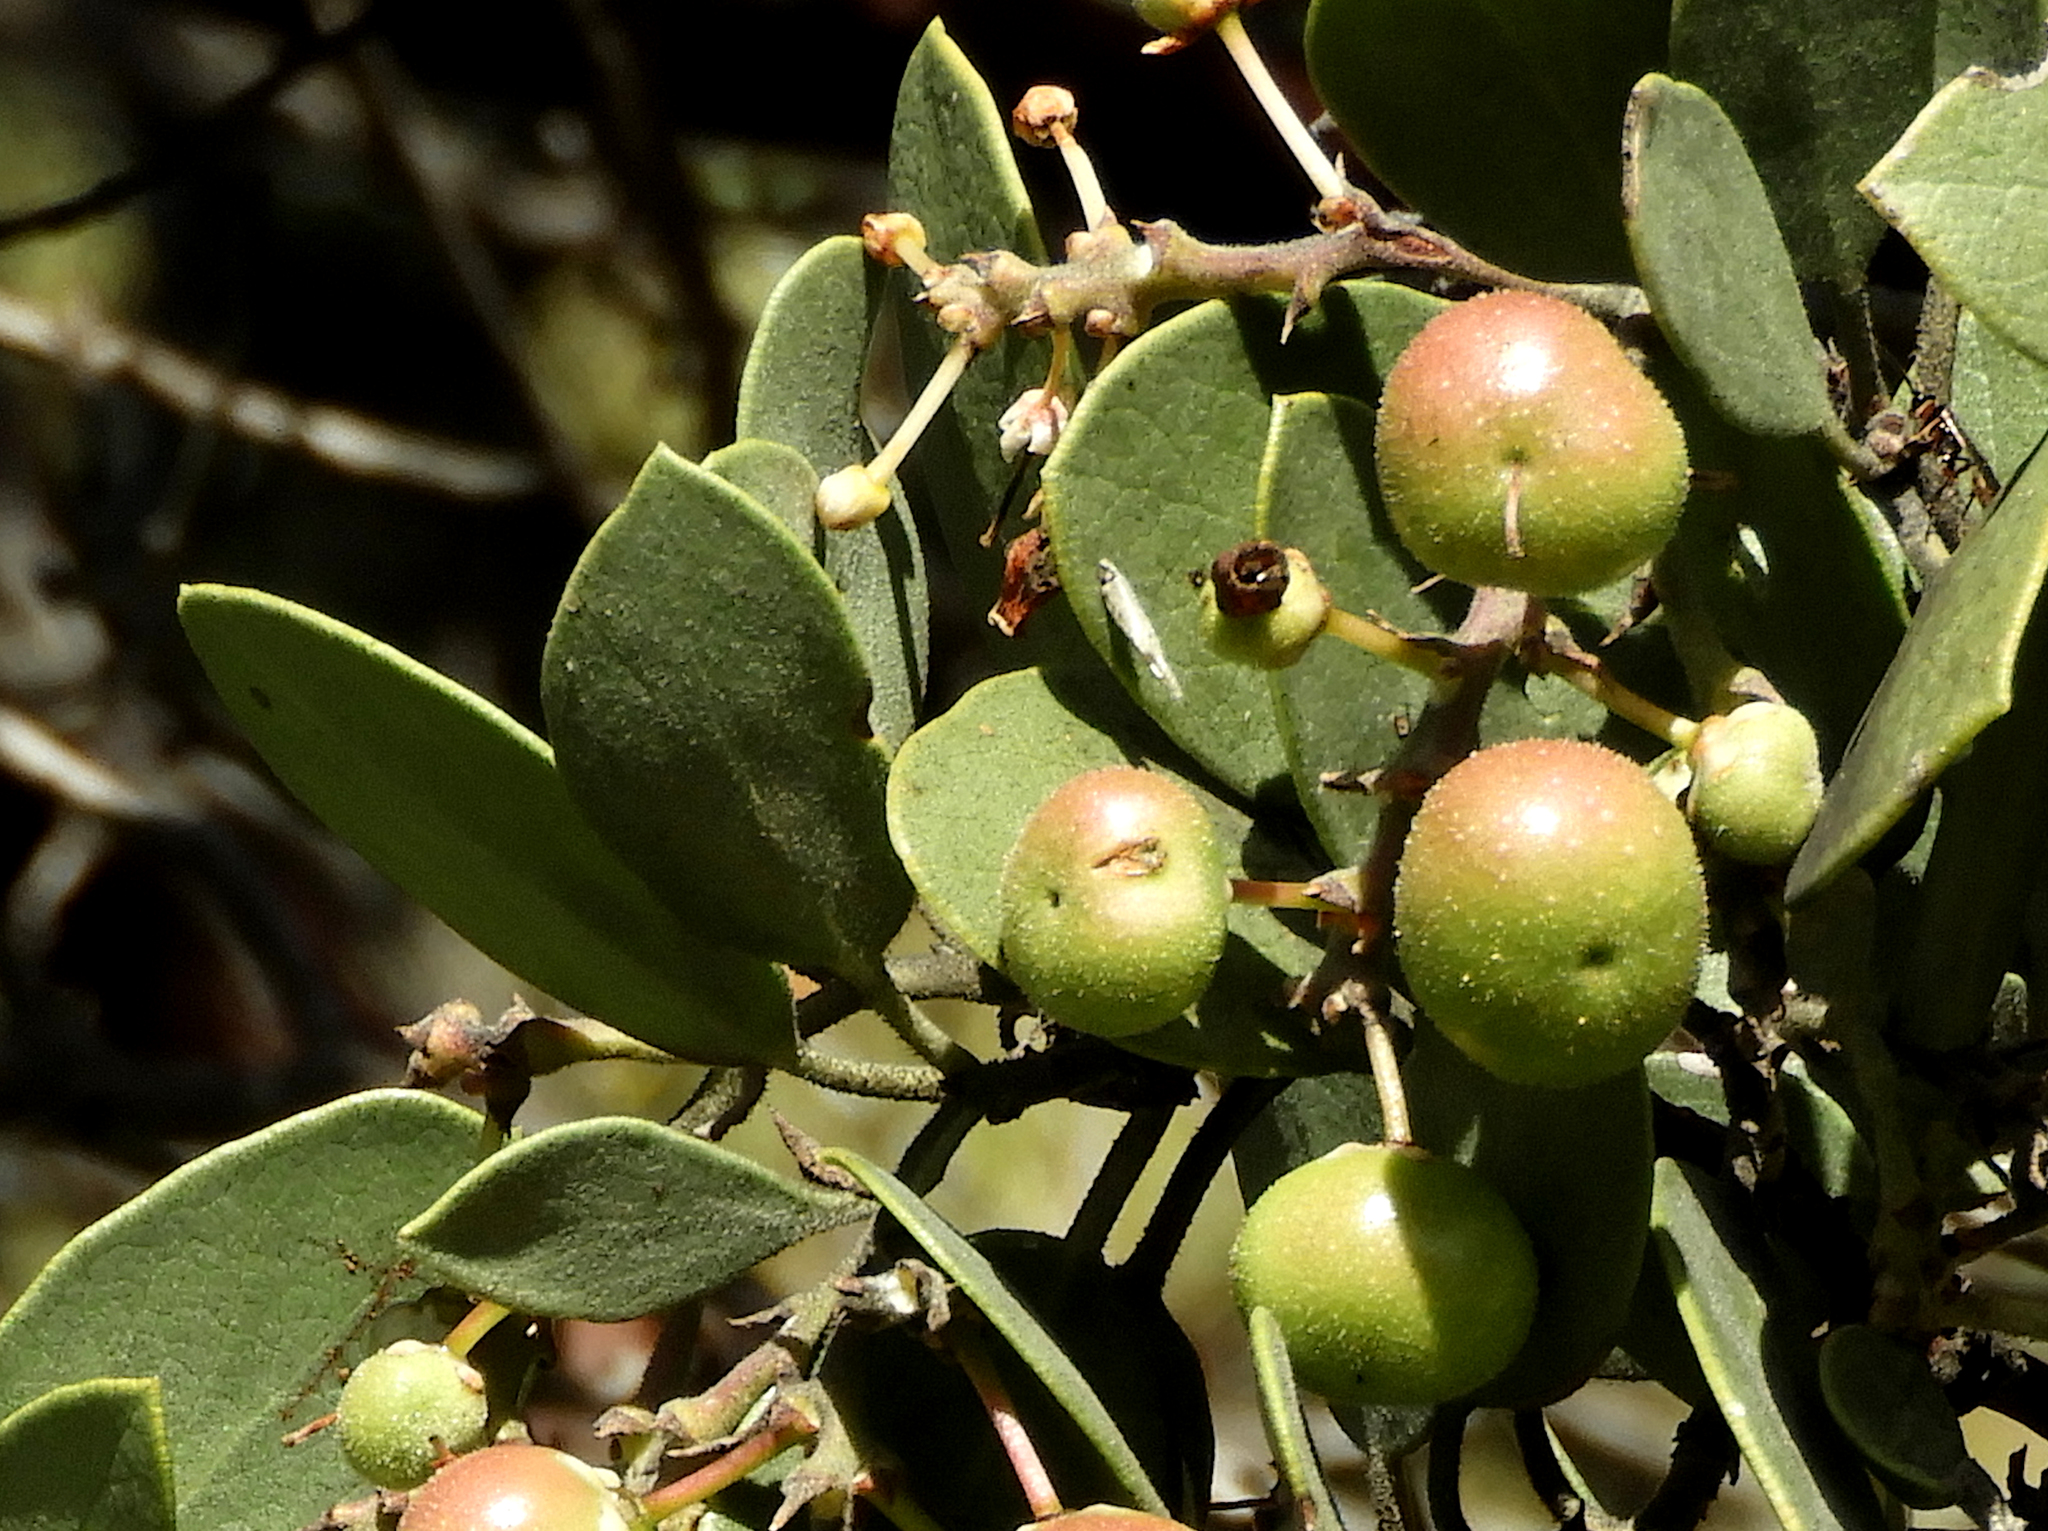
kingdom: Plantae
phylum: Tracheophyta
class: Magnoliopsida
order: Ericales
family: Ericaceae
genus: Arctostaphylos
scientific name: Arctostaphylos manzanita
